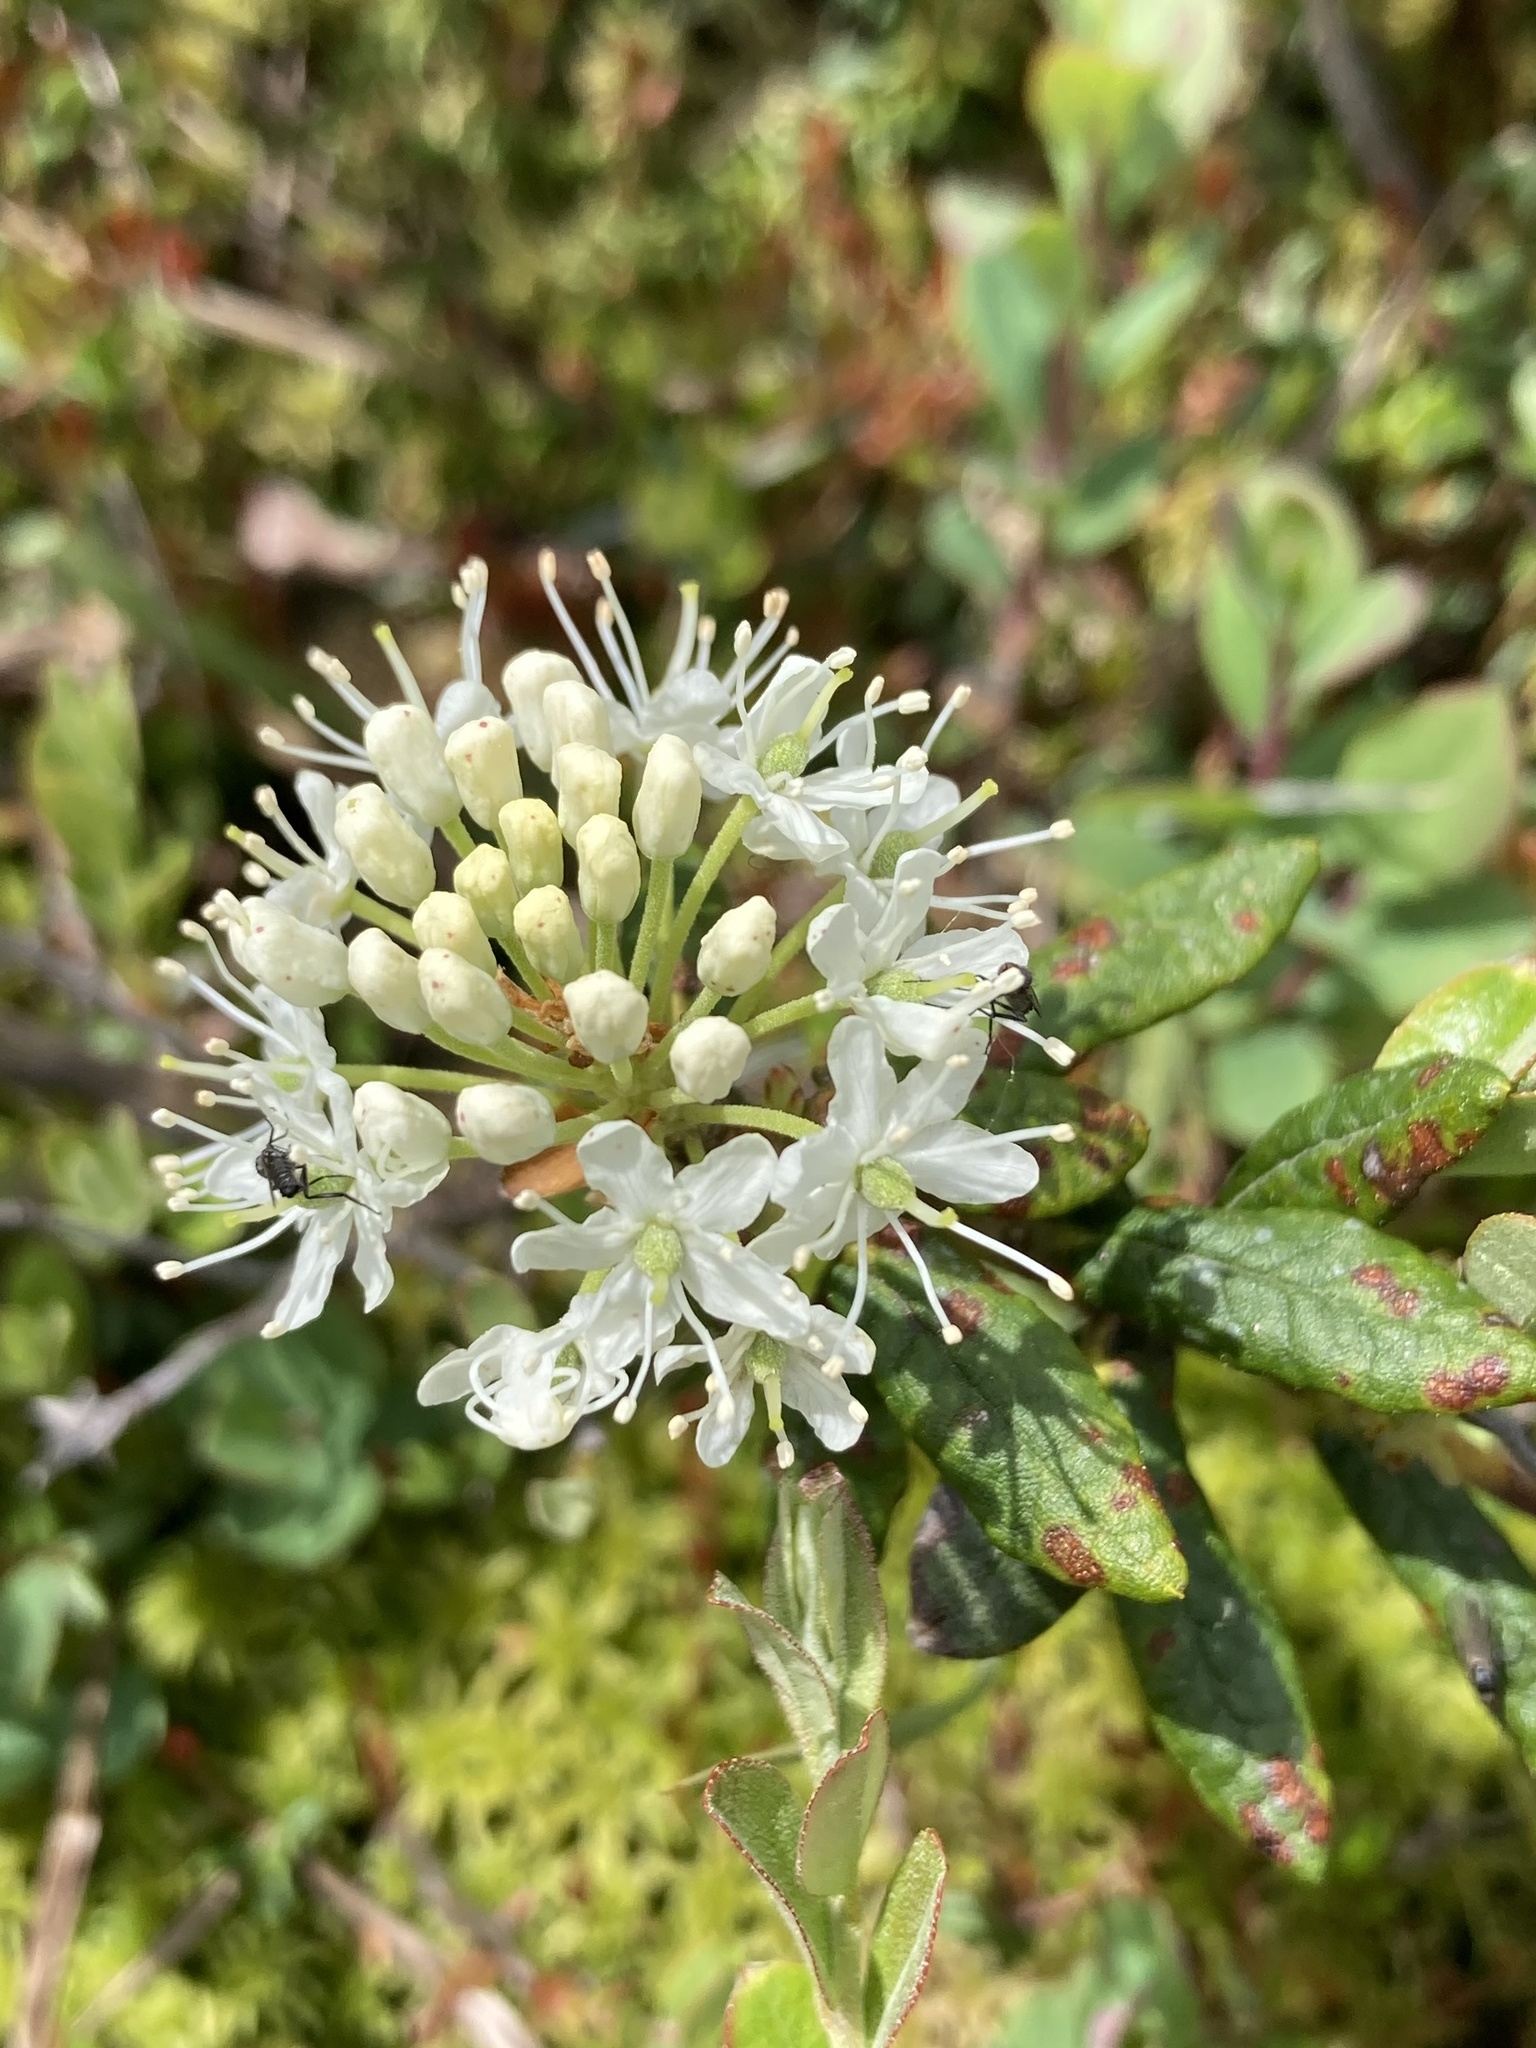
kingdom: Plantae
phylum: Tracheophyta
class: Magnoliopsida
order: Ericales
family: Ericaceae
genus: Rhododendron
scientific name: Rhododendron groenlandicum
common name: Bog labrador tea
